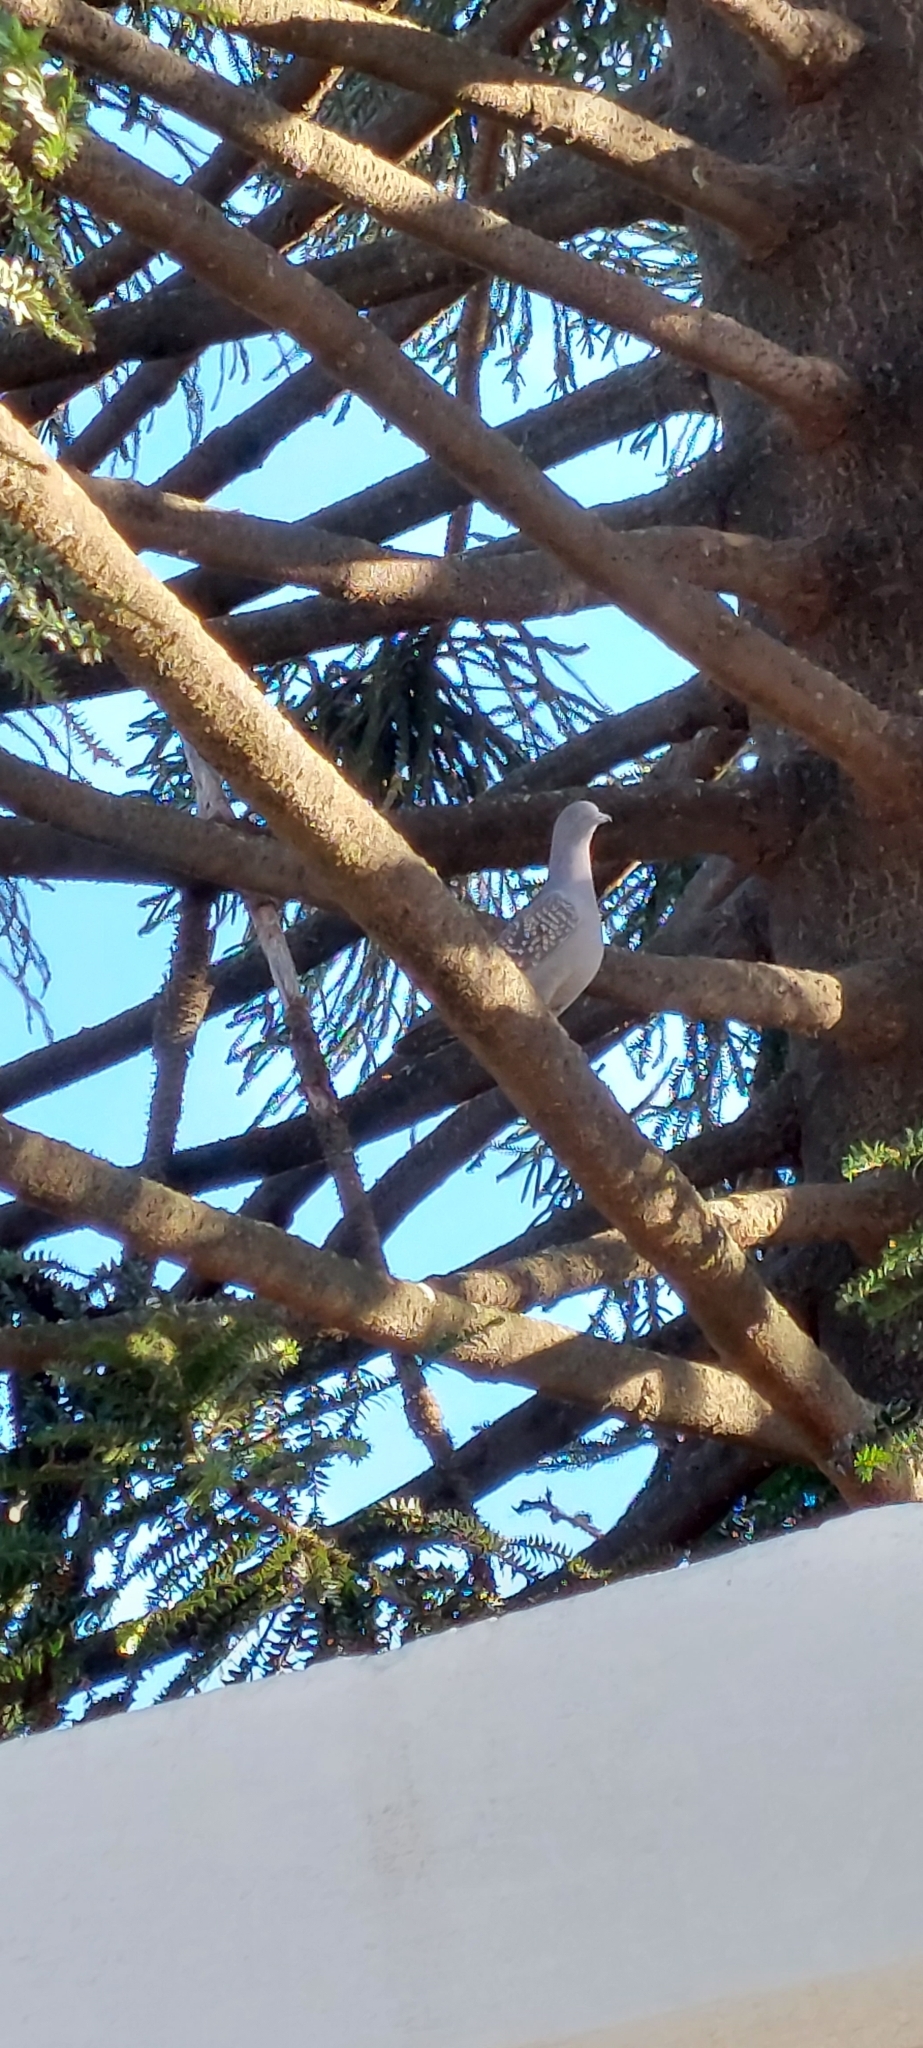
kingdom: Animalia
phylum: Chordata
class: Aves
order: Columbiformes
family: Columbidae
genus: Patagioenas
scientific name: Patagioenas maculosa
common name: Spot-winged pigeon
